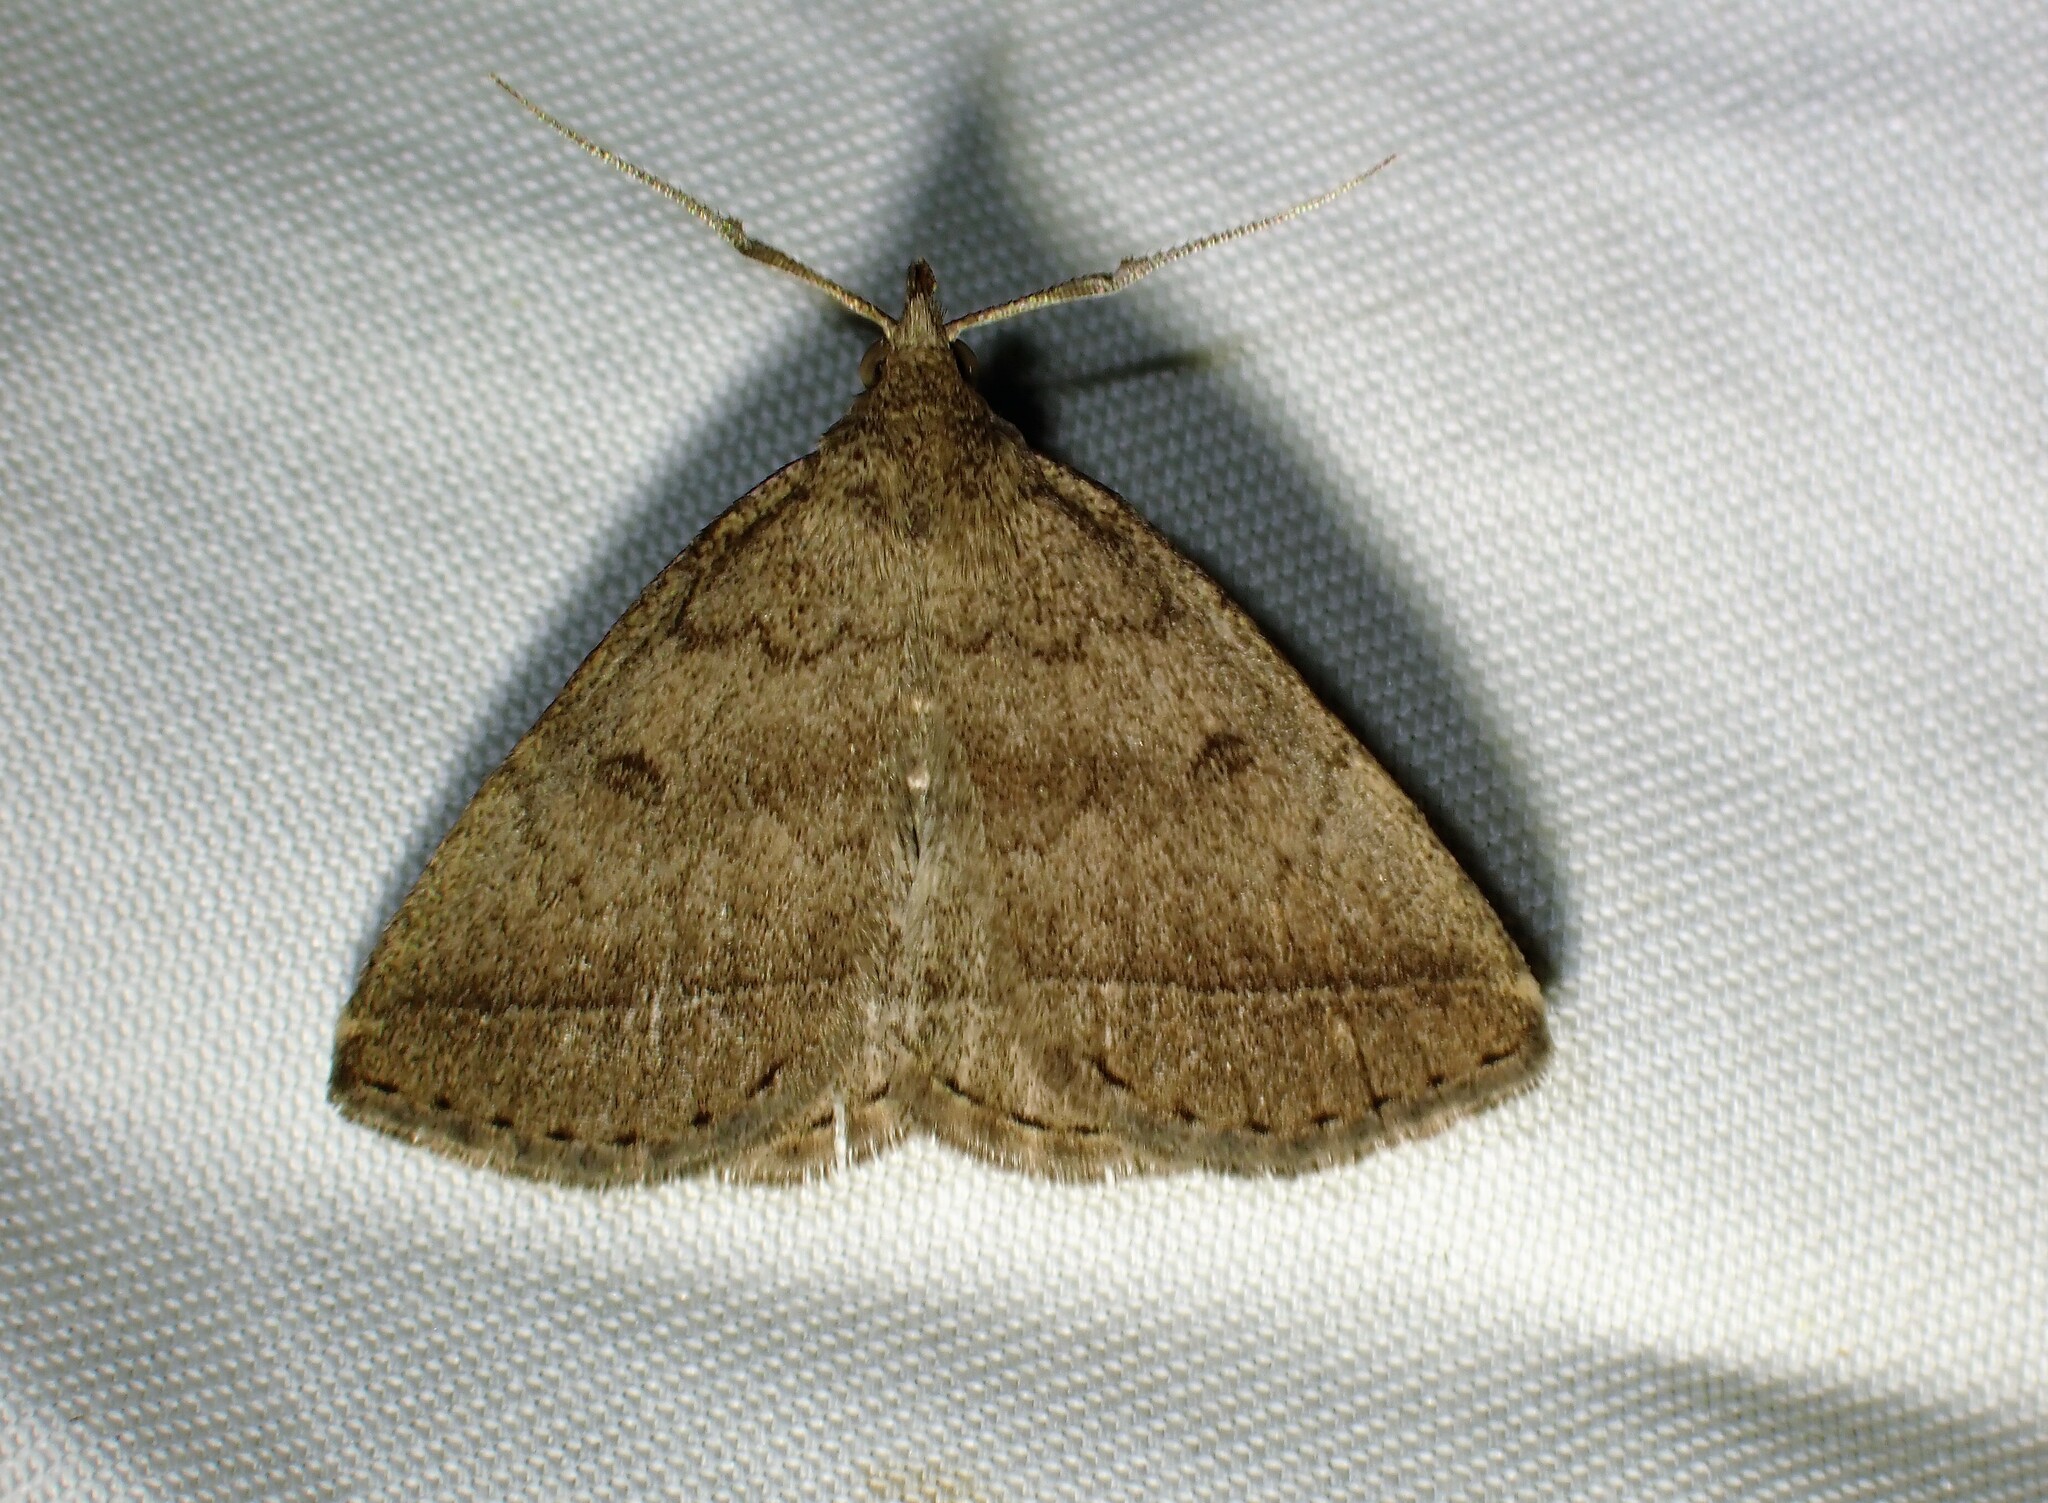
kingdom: Animalia
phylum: Arthropoda
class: Insecta
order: Lepidoptera
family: Erebidae
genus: Zanclognatha
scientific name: Zanclognatha jacchusalis
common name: Yellowish zanclognatha
